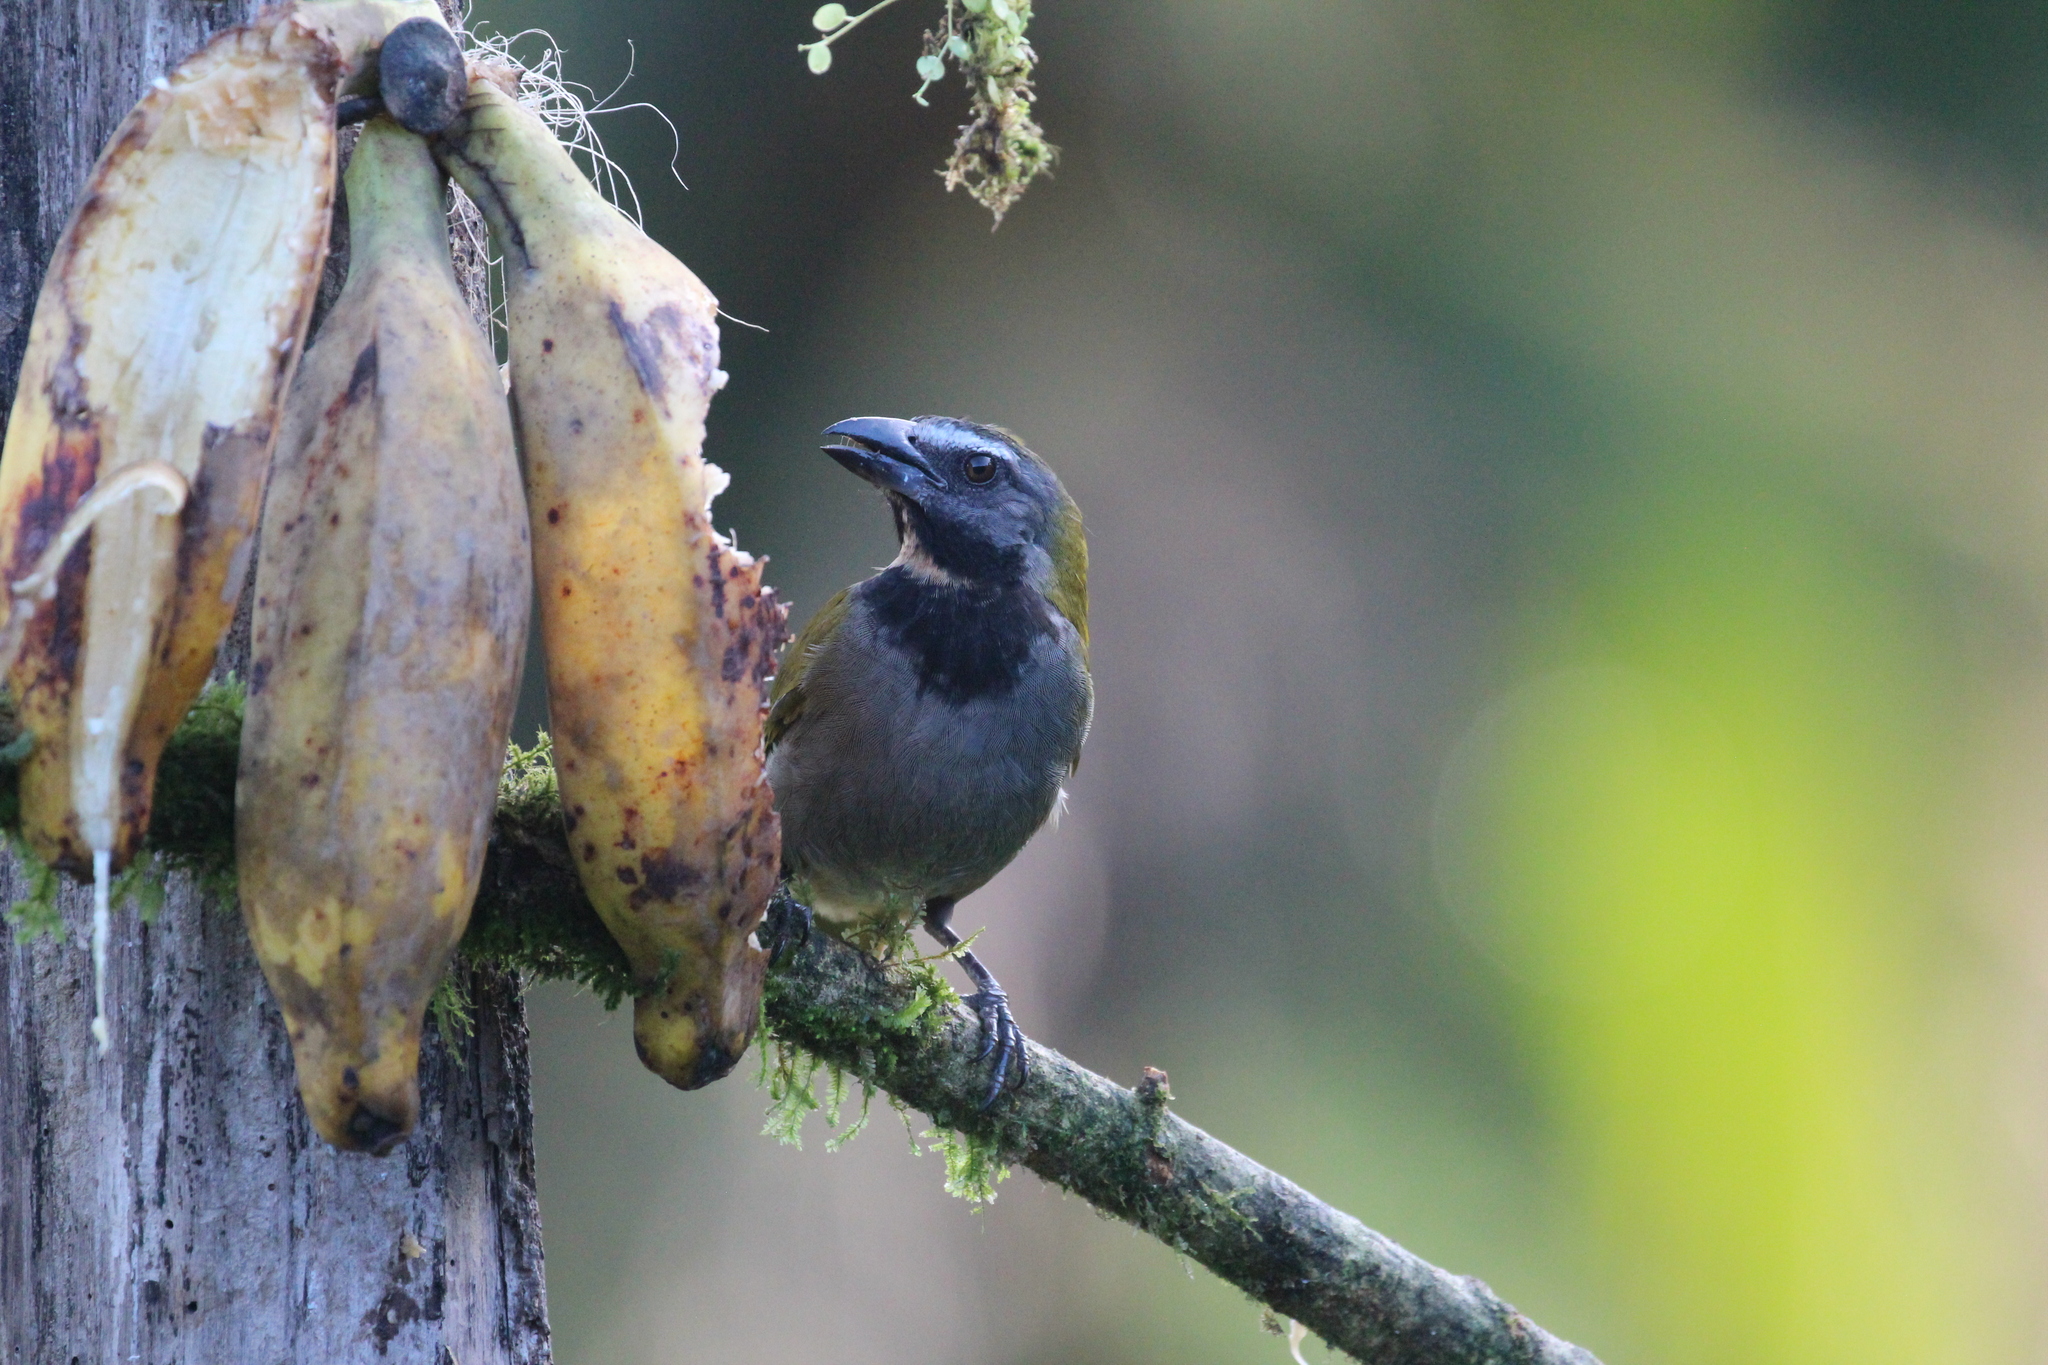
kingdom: Animalia
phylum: Chordata
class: Aves
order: Passeriformes
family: Thraupidae
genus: Saltator
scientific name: Saltator maximus
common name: Buff-throated saltator
